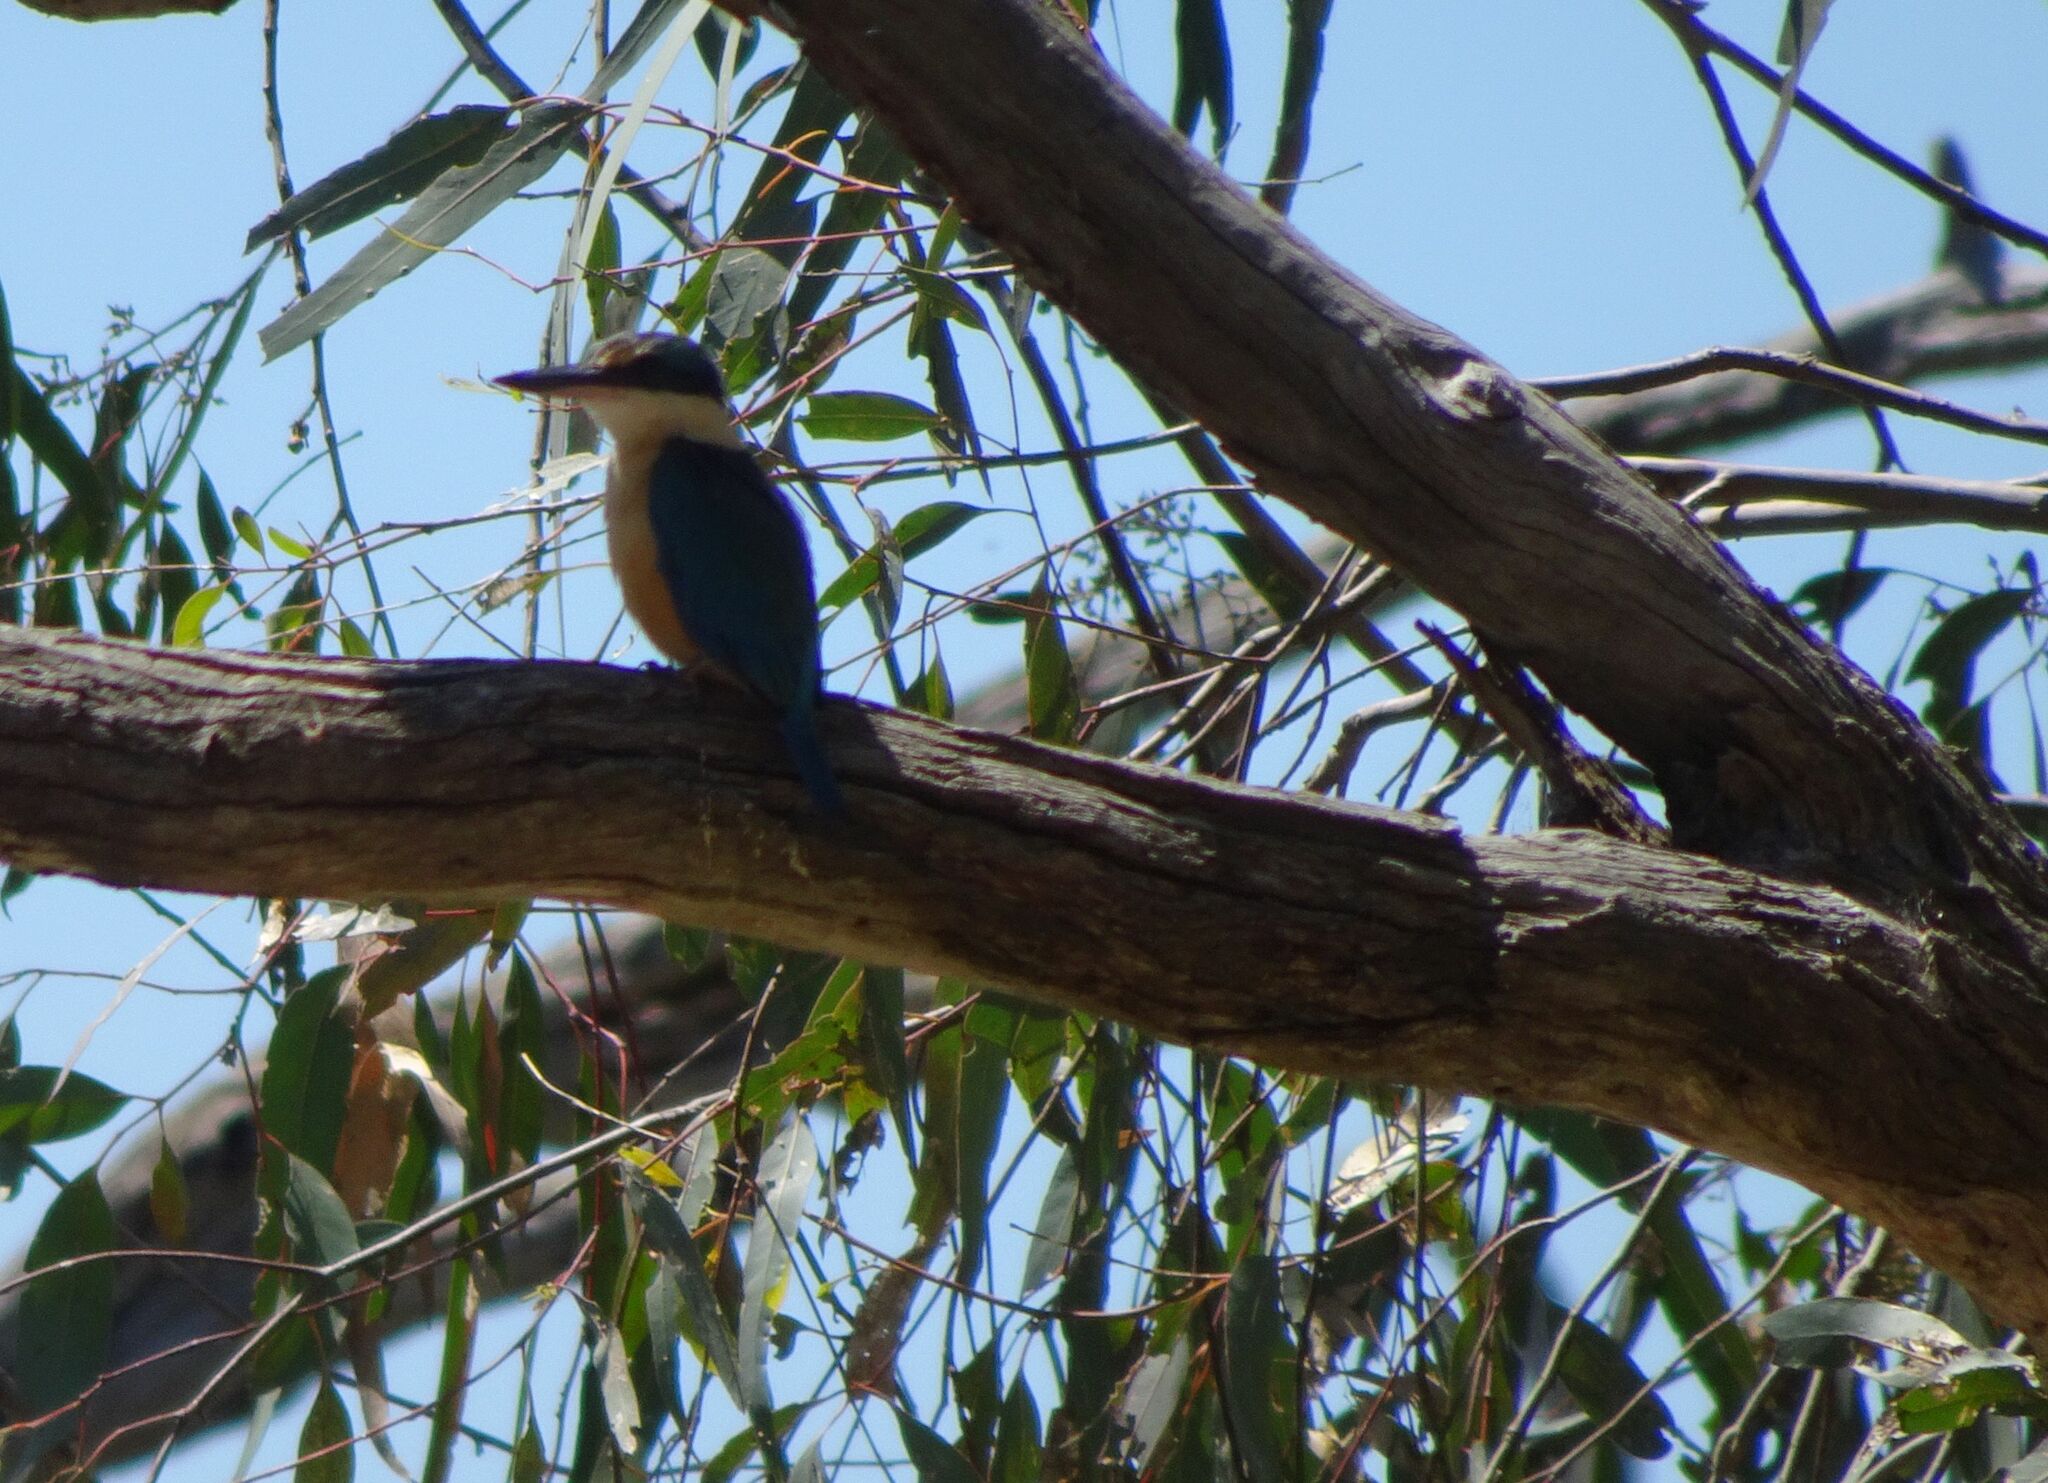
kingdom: Animalia
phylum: Chordata
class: Aves
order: Coraciiformes
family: Alcedinidae
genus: Todiramphus
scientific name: Todiramphus sanctus
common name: Sacred kingfisher
